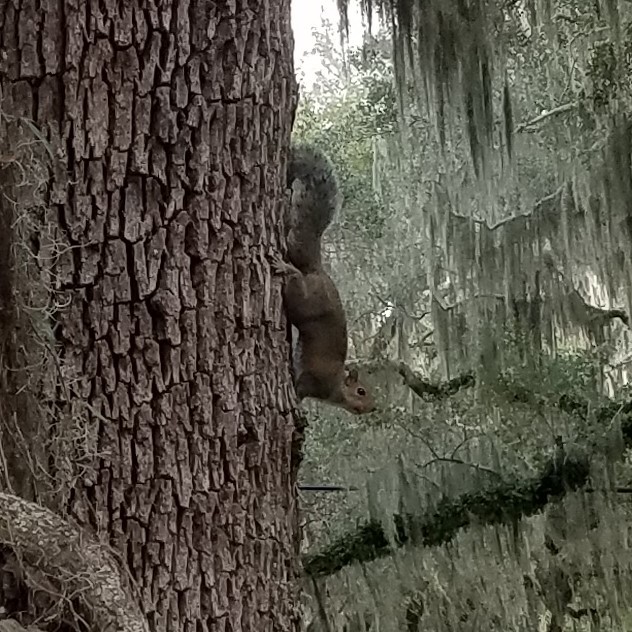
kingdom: Animalia
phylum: Chordata
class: Mammalia
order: Rodentia
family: Sciuridae
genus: Sciurus
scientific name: Sciurus carolinensis
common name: Eastern gray squirrel
